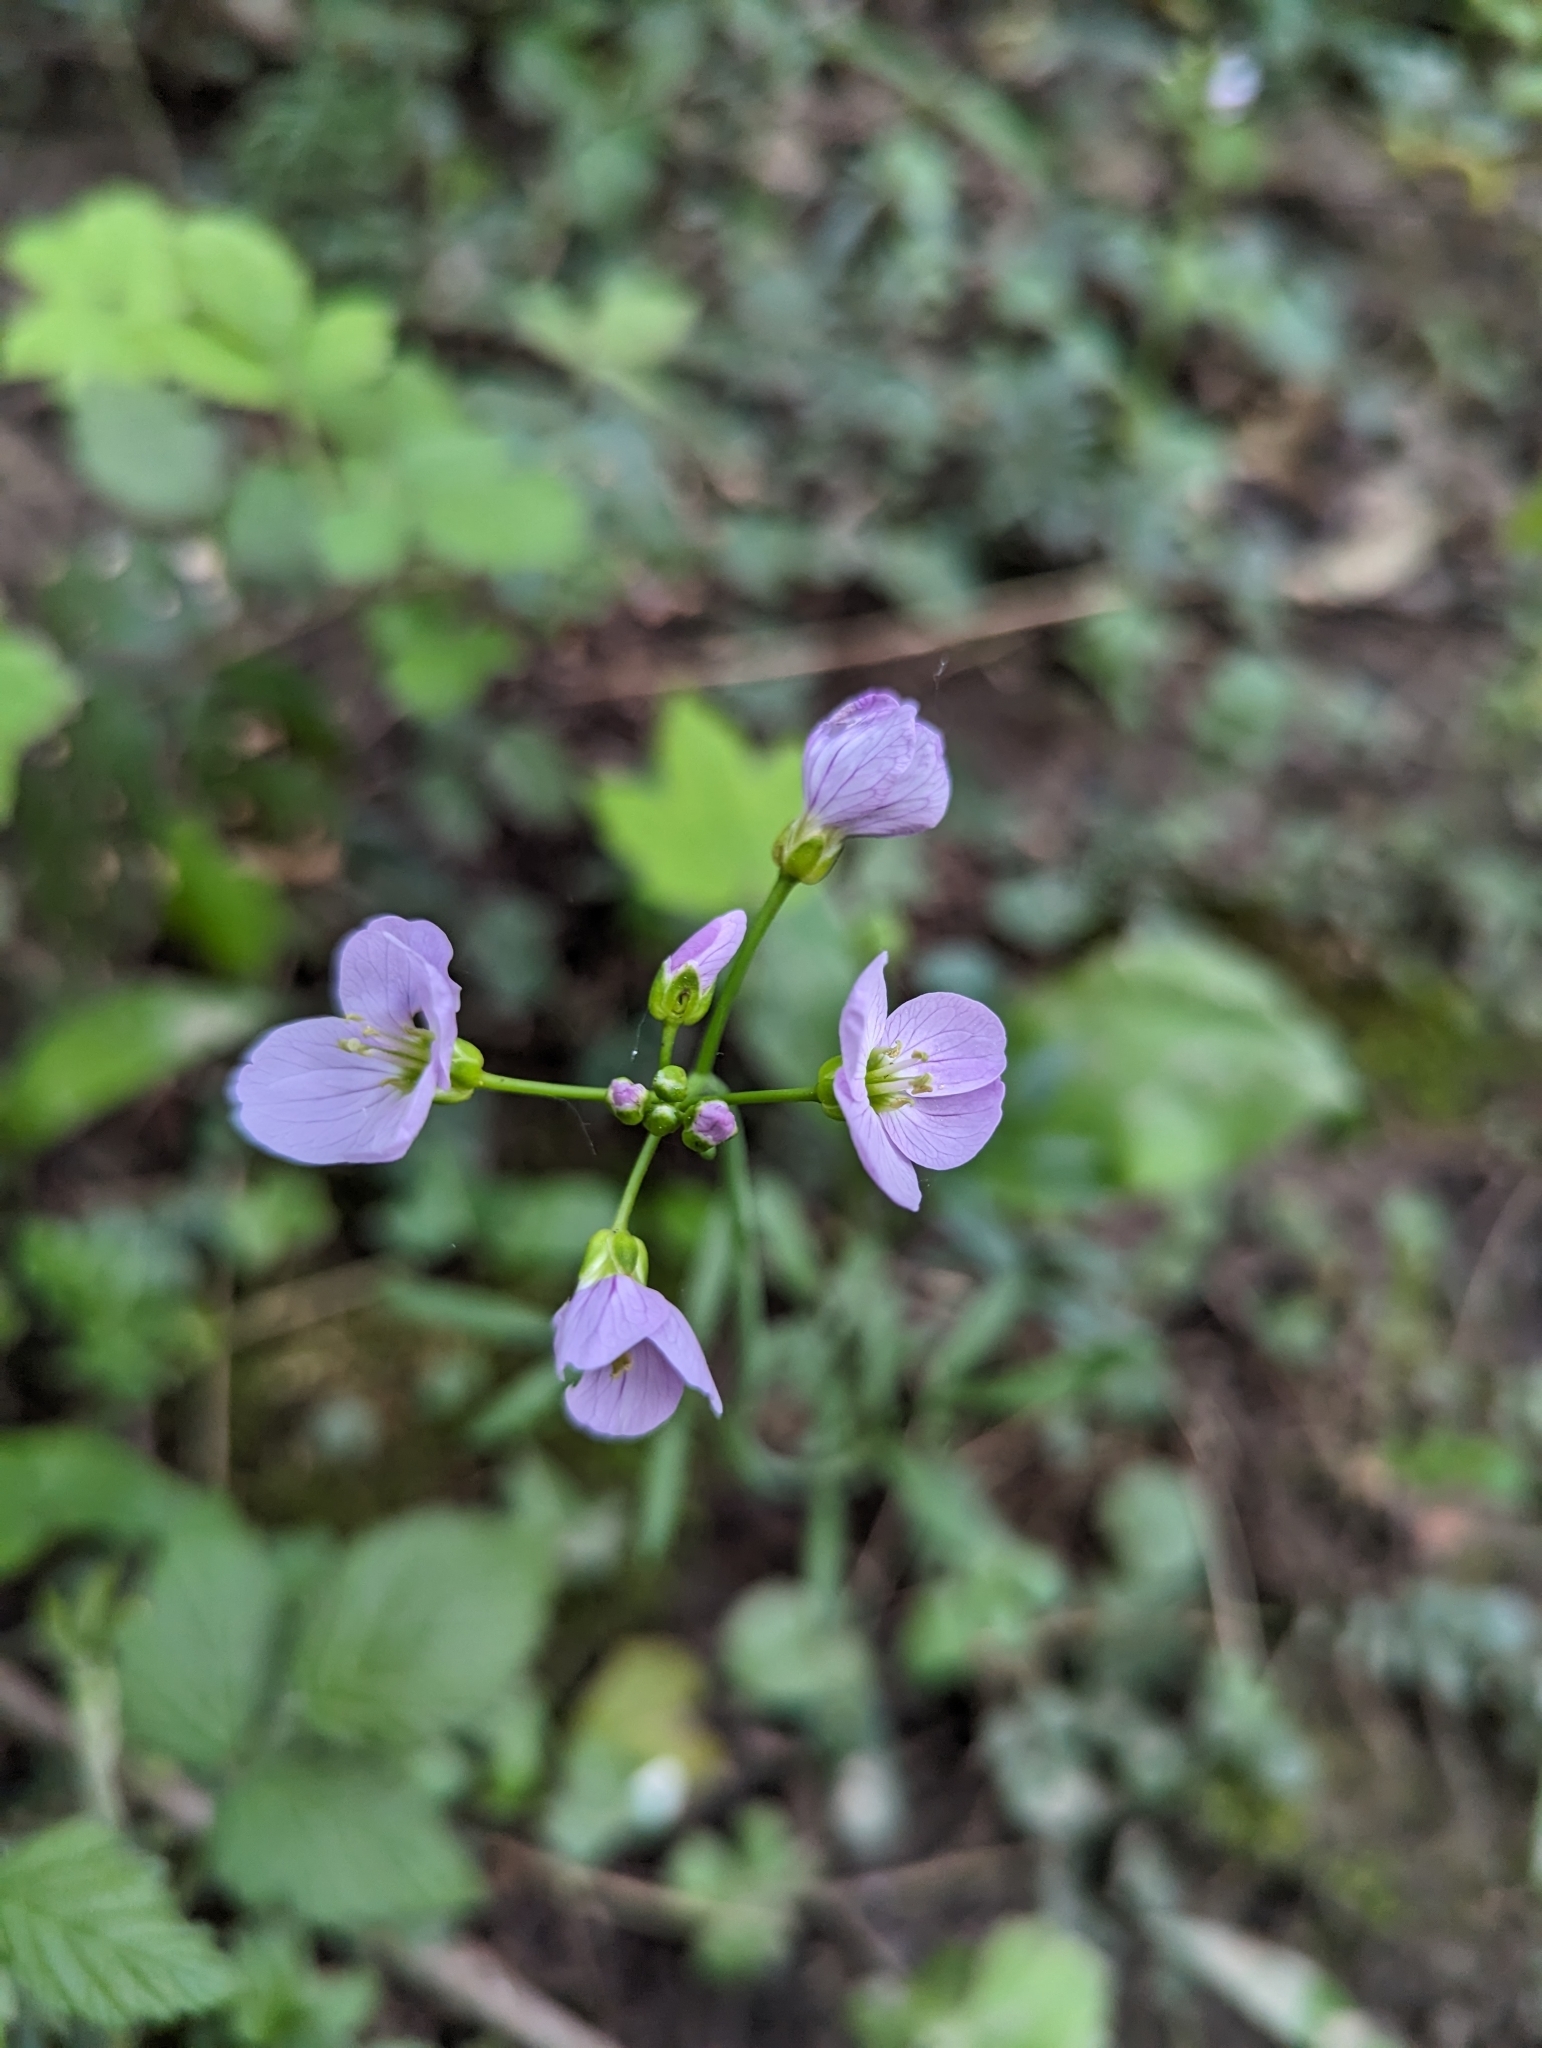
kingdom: Plantae
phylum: Tracheophyta
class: Magnoliopsida
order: Brassicales
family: Brassicaceae
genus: Cardamine
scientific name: Cardamine pratensis
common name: Cuckoo flower
